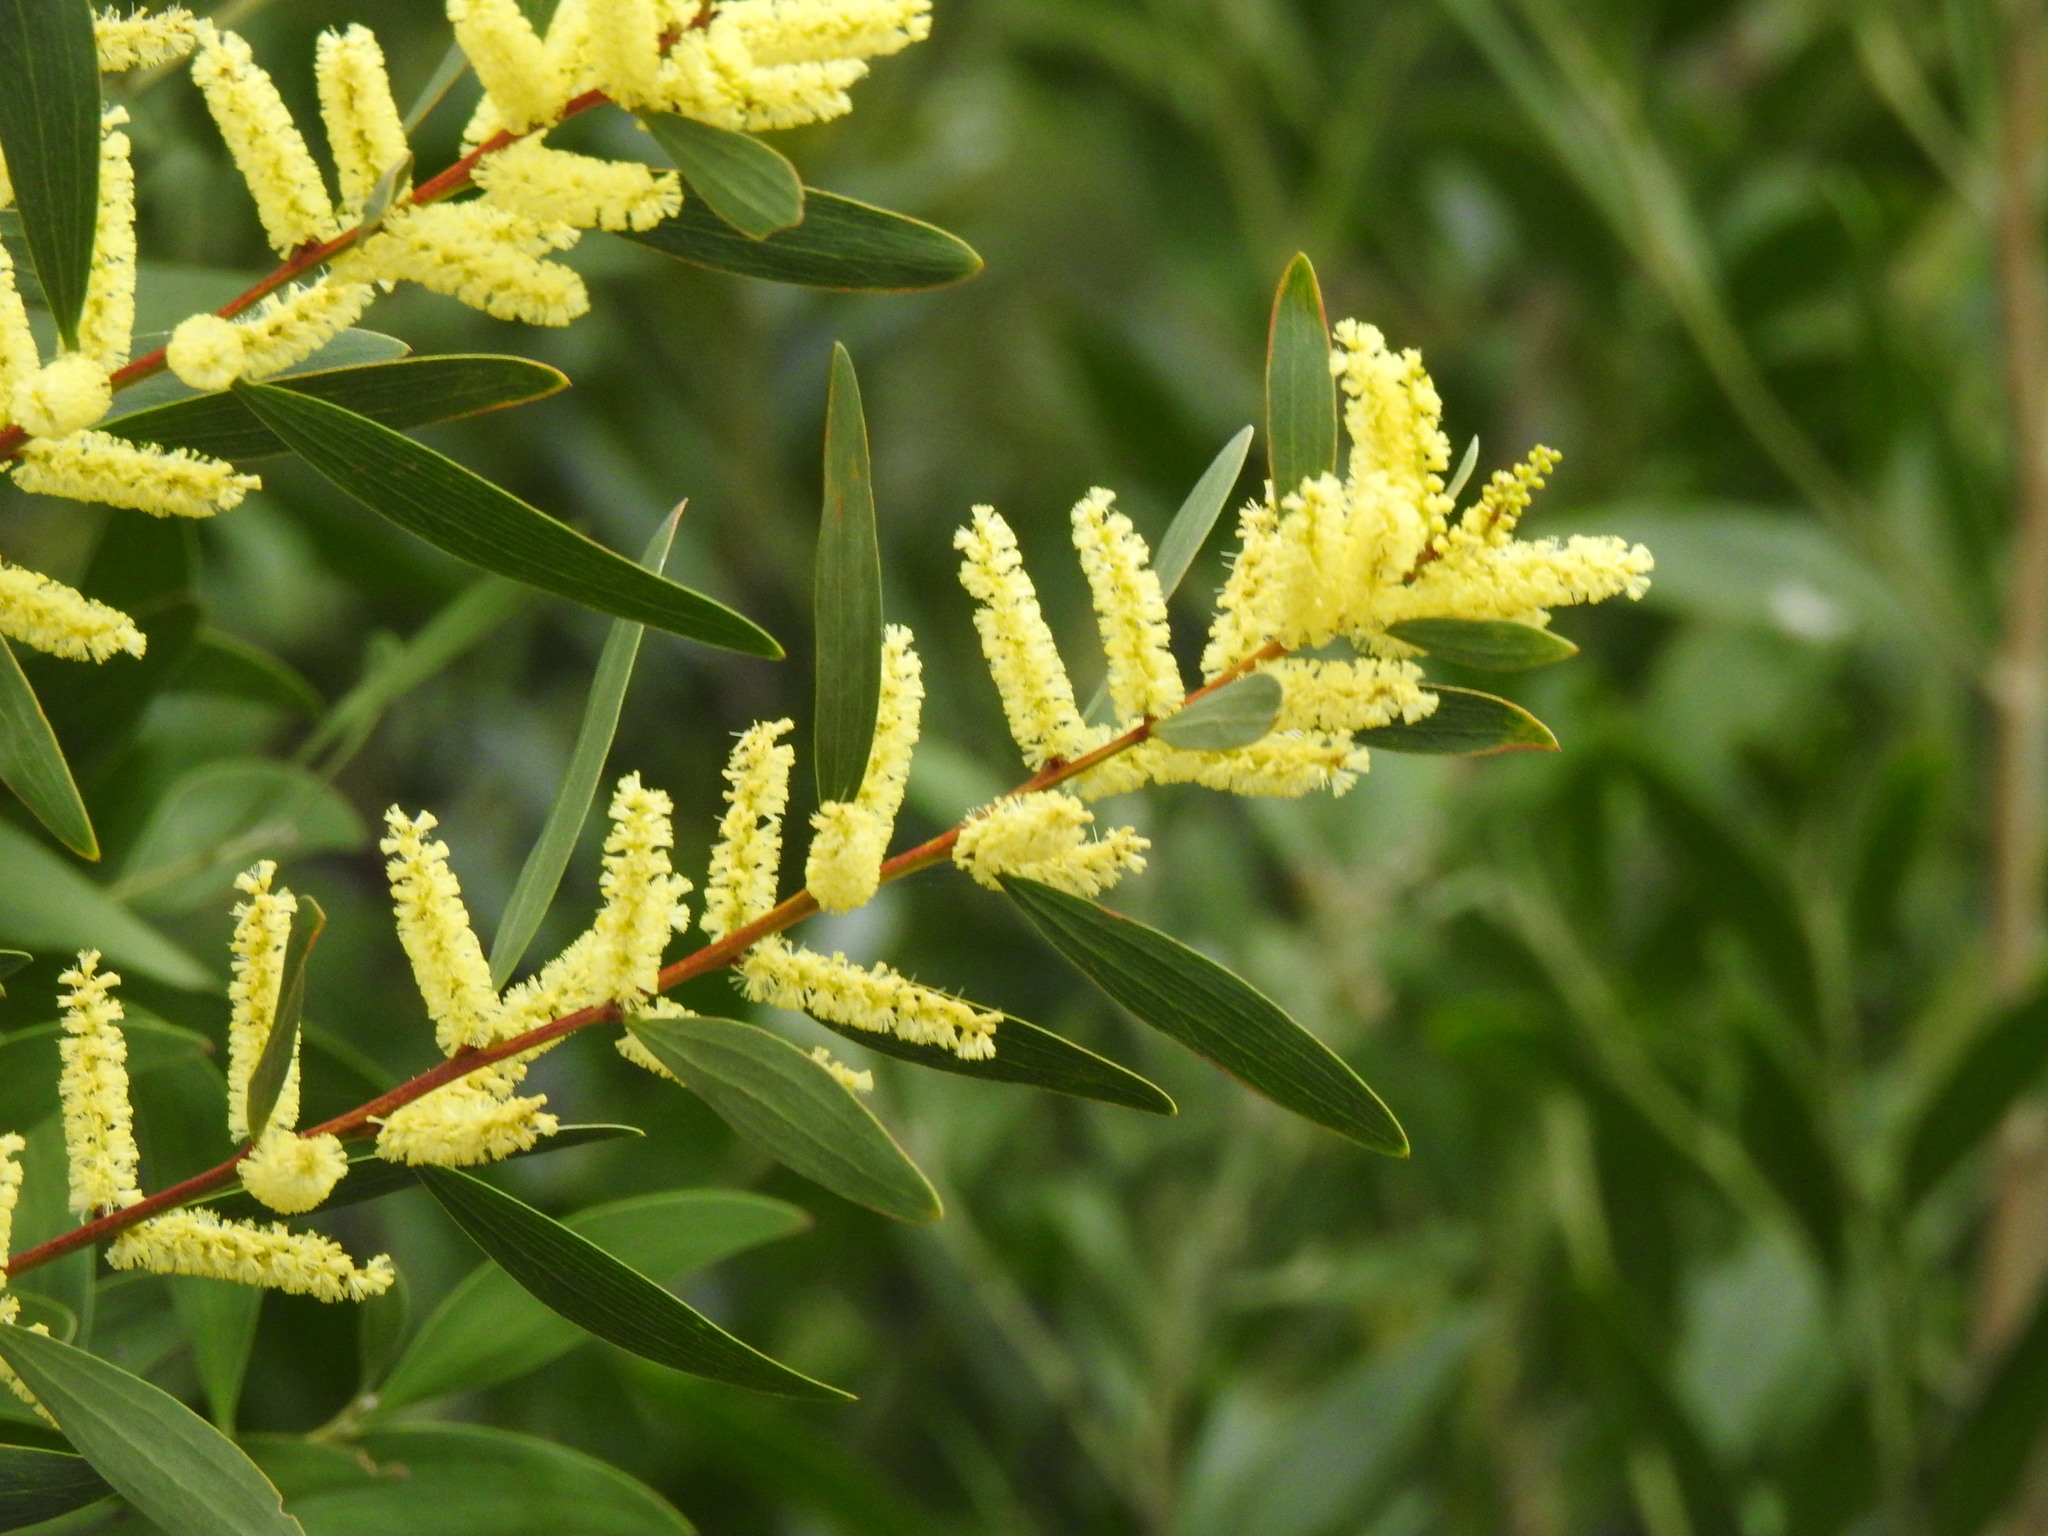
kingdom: Plantae
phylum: Tracheophyta
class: Magnoliopsida
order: Fabales
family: Fabaceae
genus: Acacia
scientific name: Acacia longifolia
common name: Sydney golden wattle
